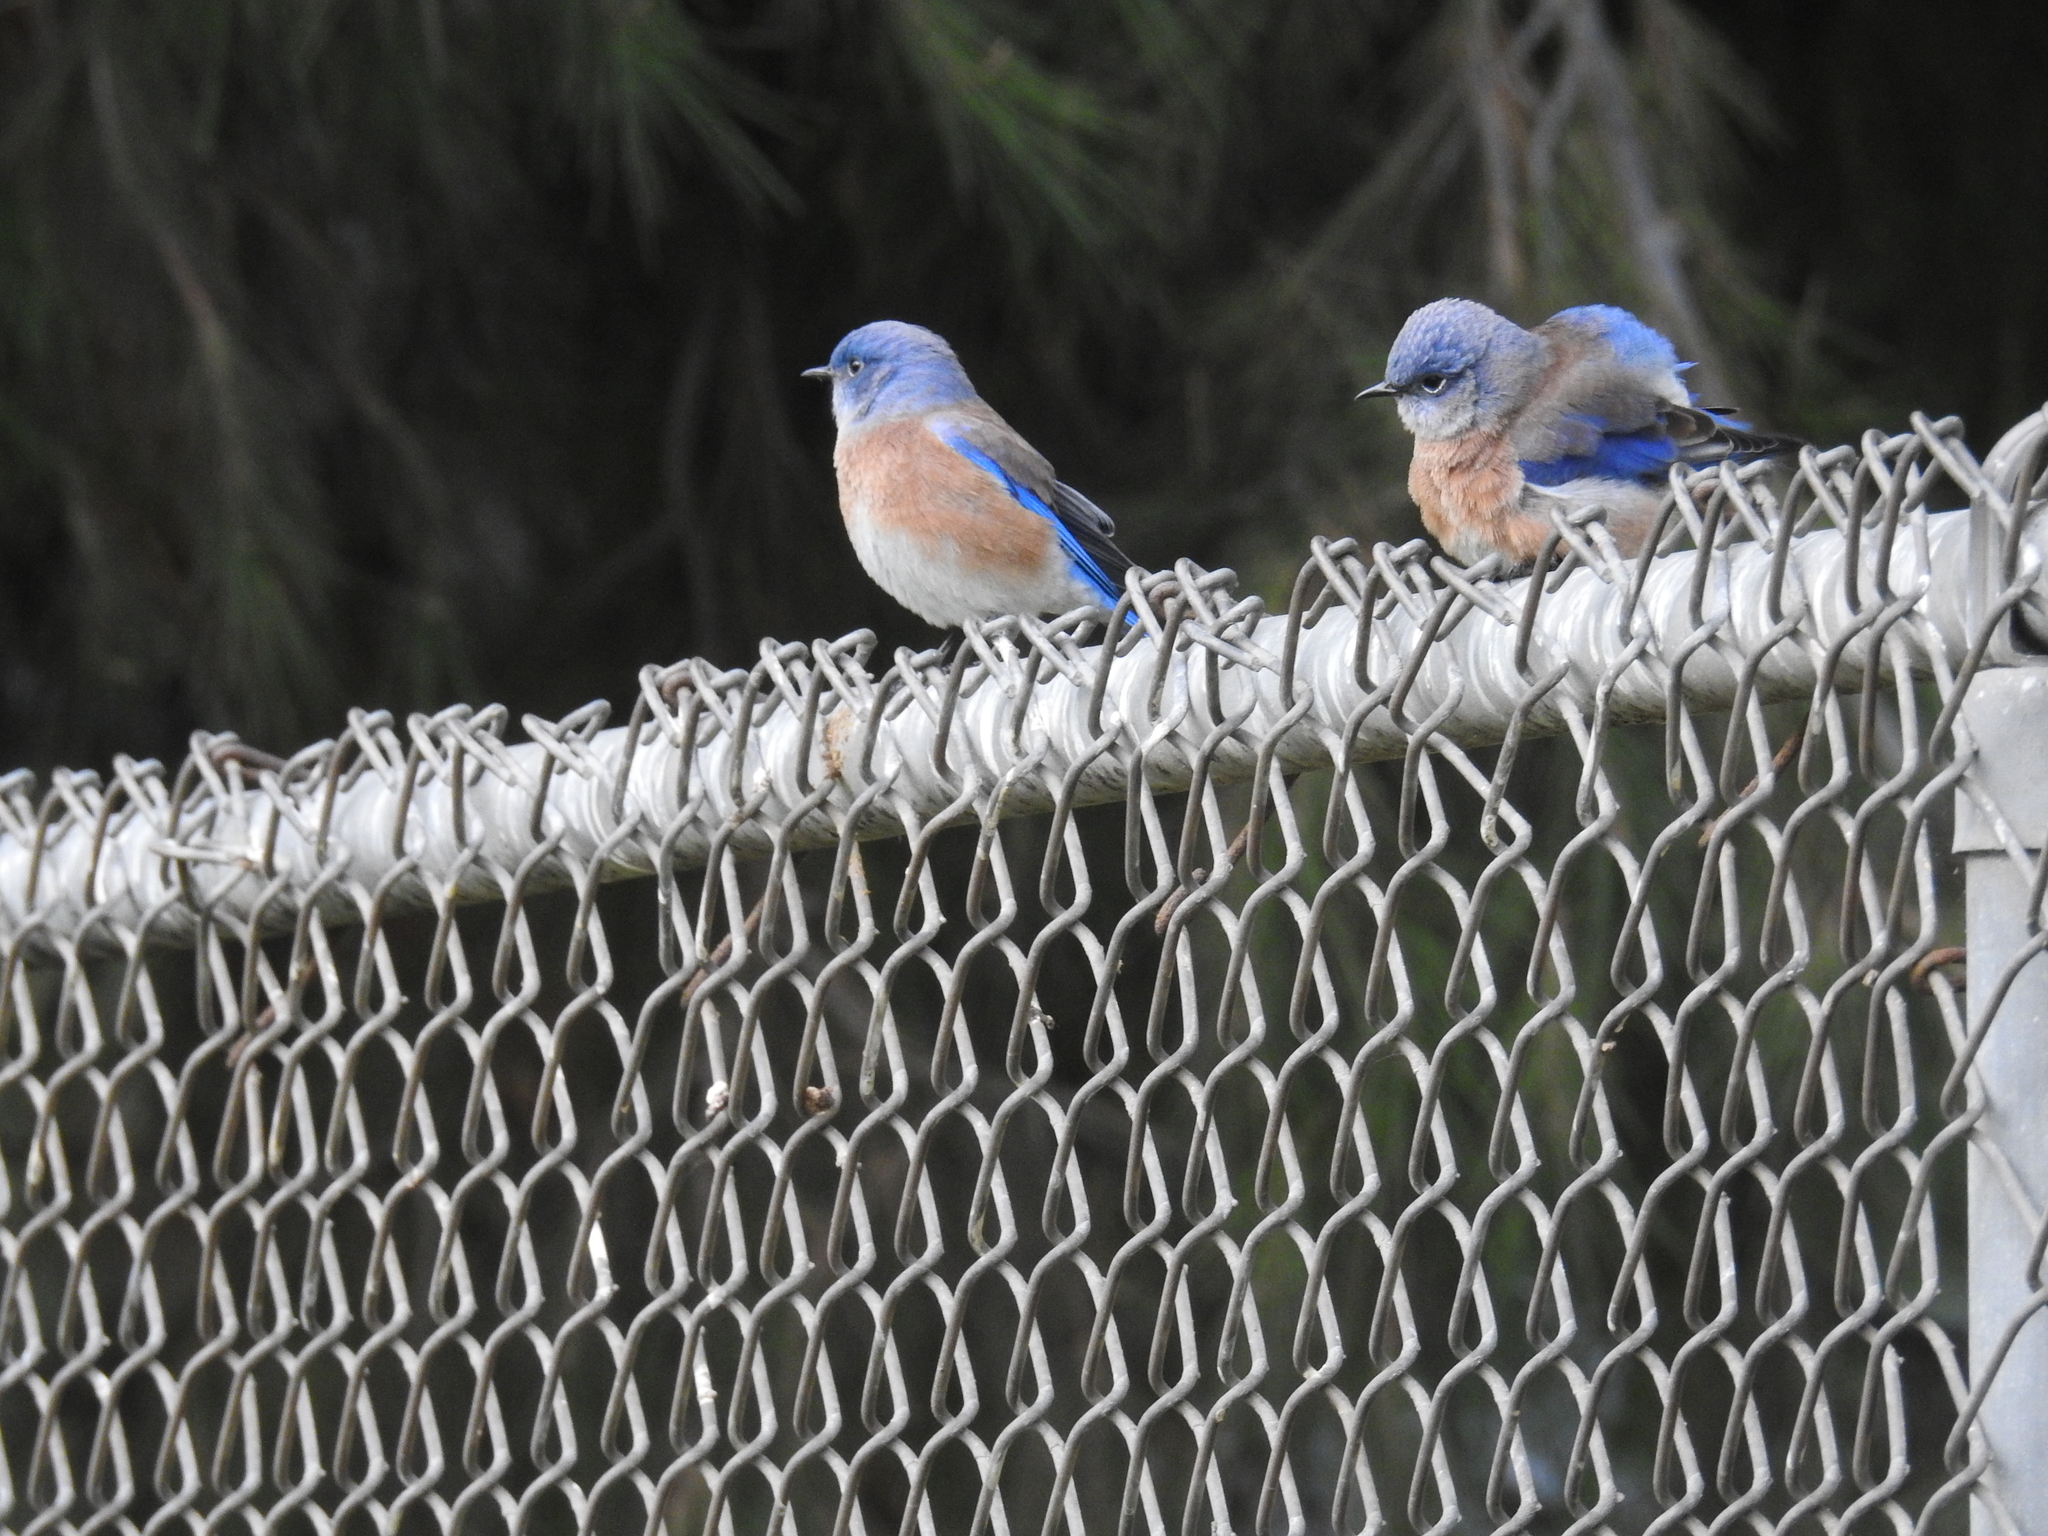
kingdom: Animalia
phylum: Chordata
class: Aves
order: Passeriformes
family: Turdidae
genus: Sialia
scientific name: Sialia mexicana
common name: Western bluebird
